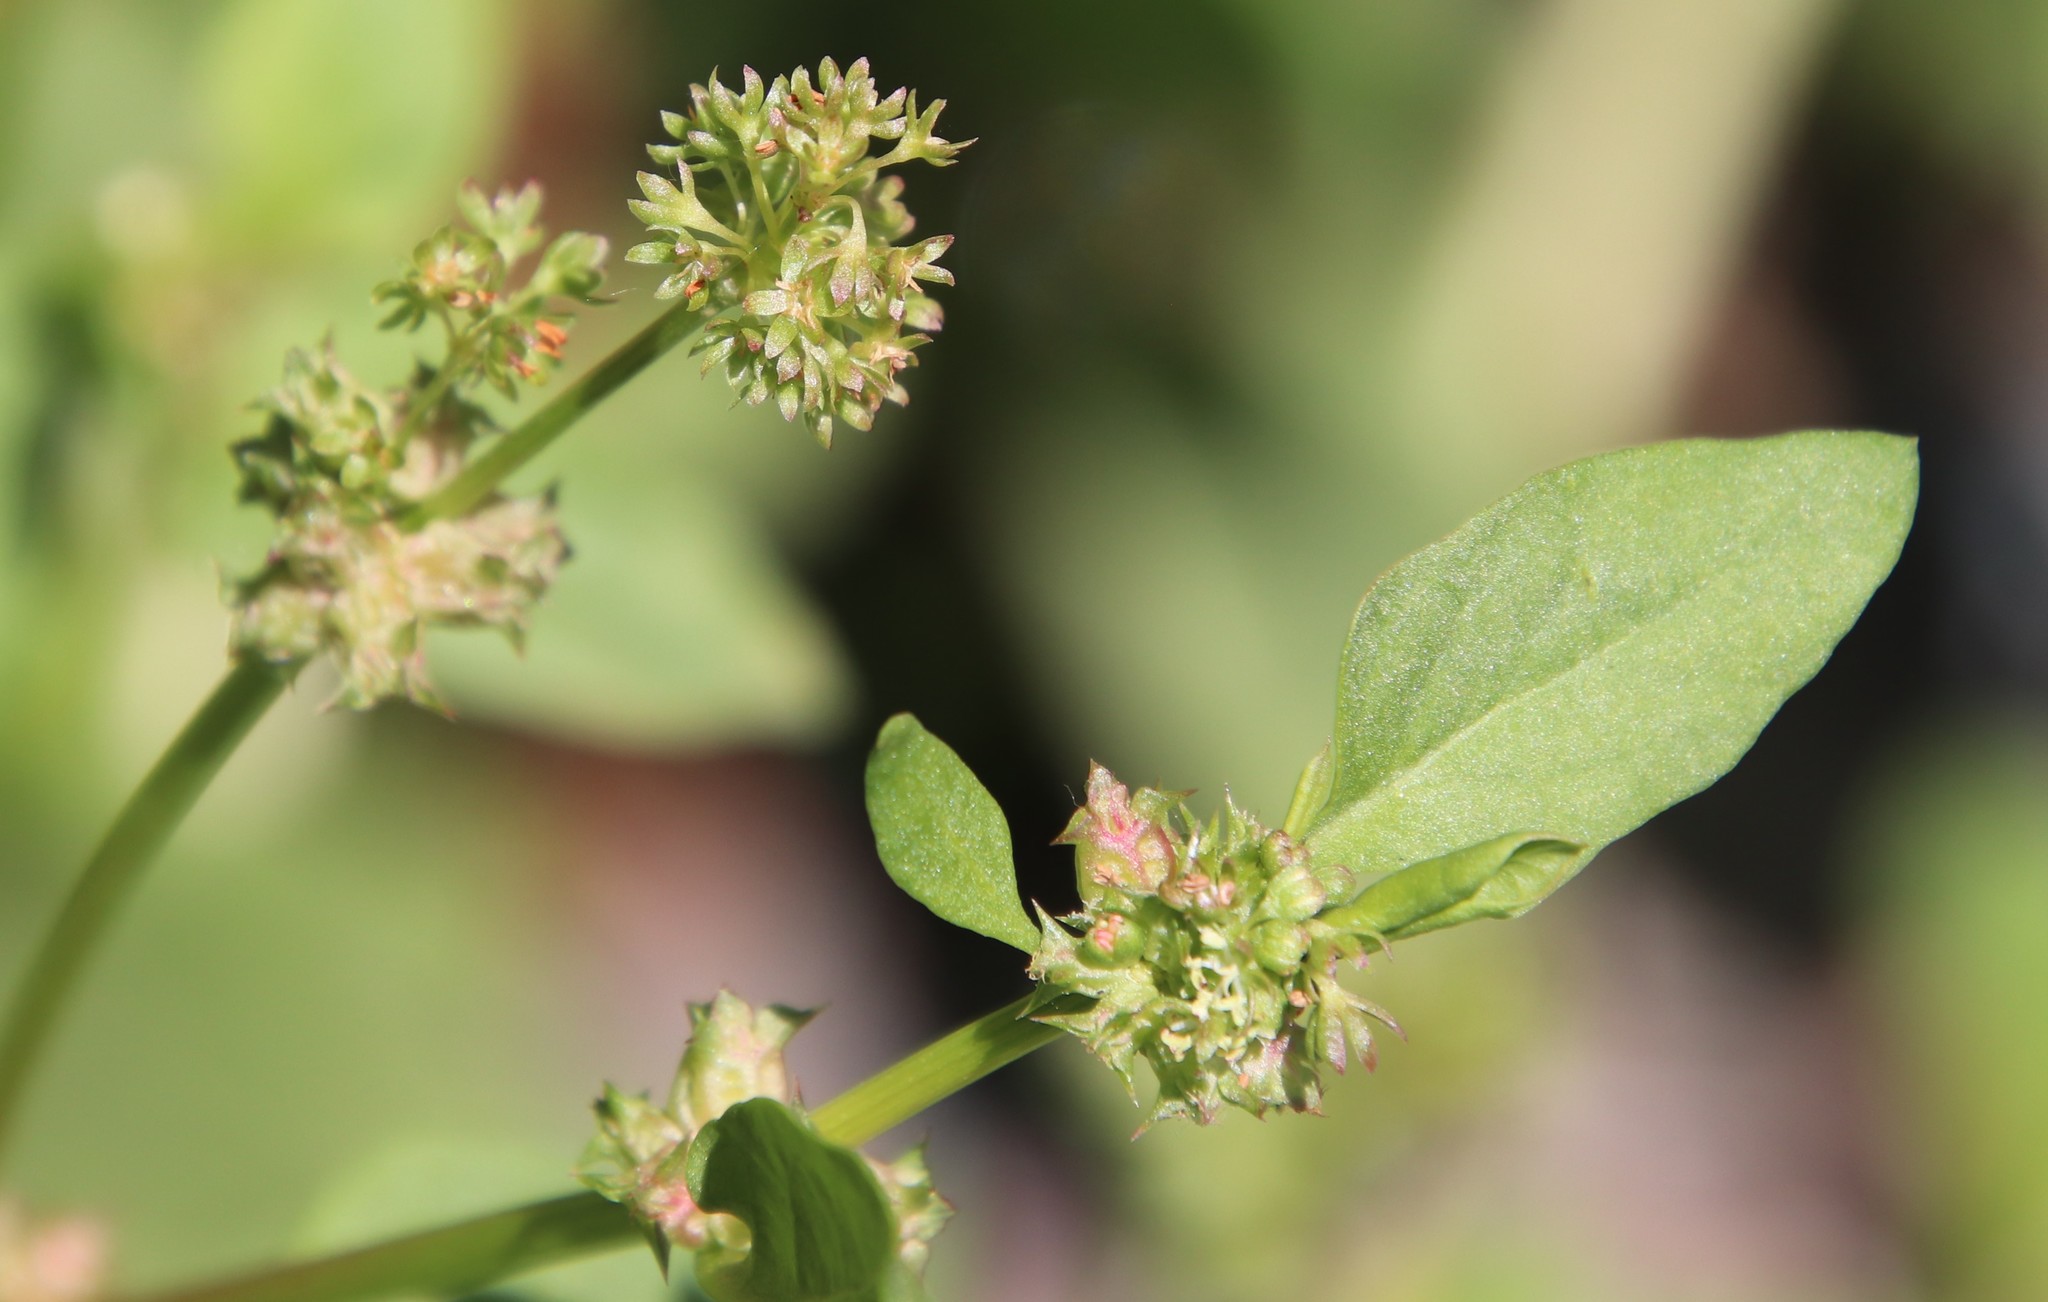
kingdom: Plantae
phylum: Tracheophyta
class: Magnoliopsida
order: Caryophyllales
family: Polygonaceae
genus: Rumex
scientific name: Rumex spinosus
